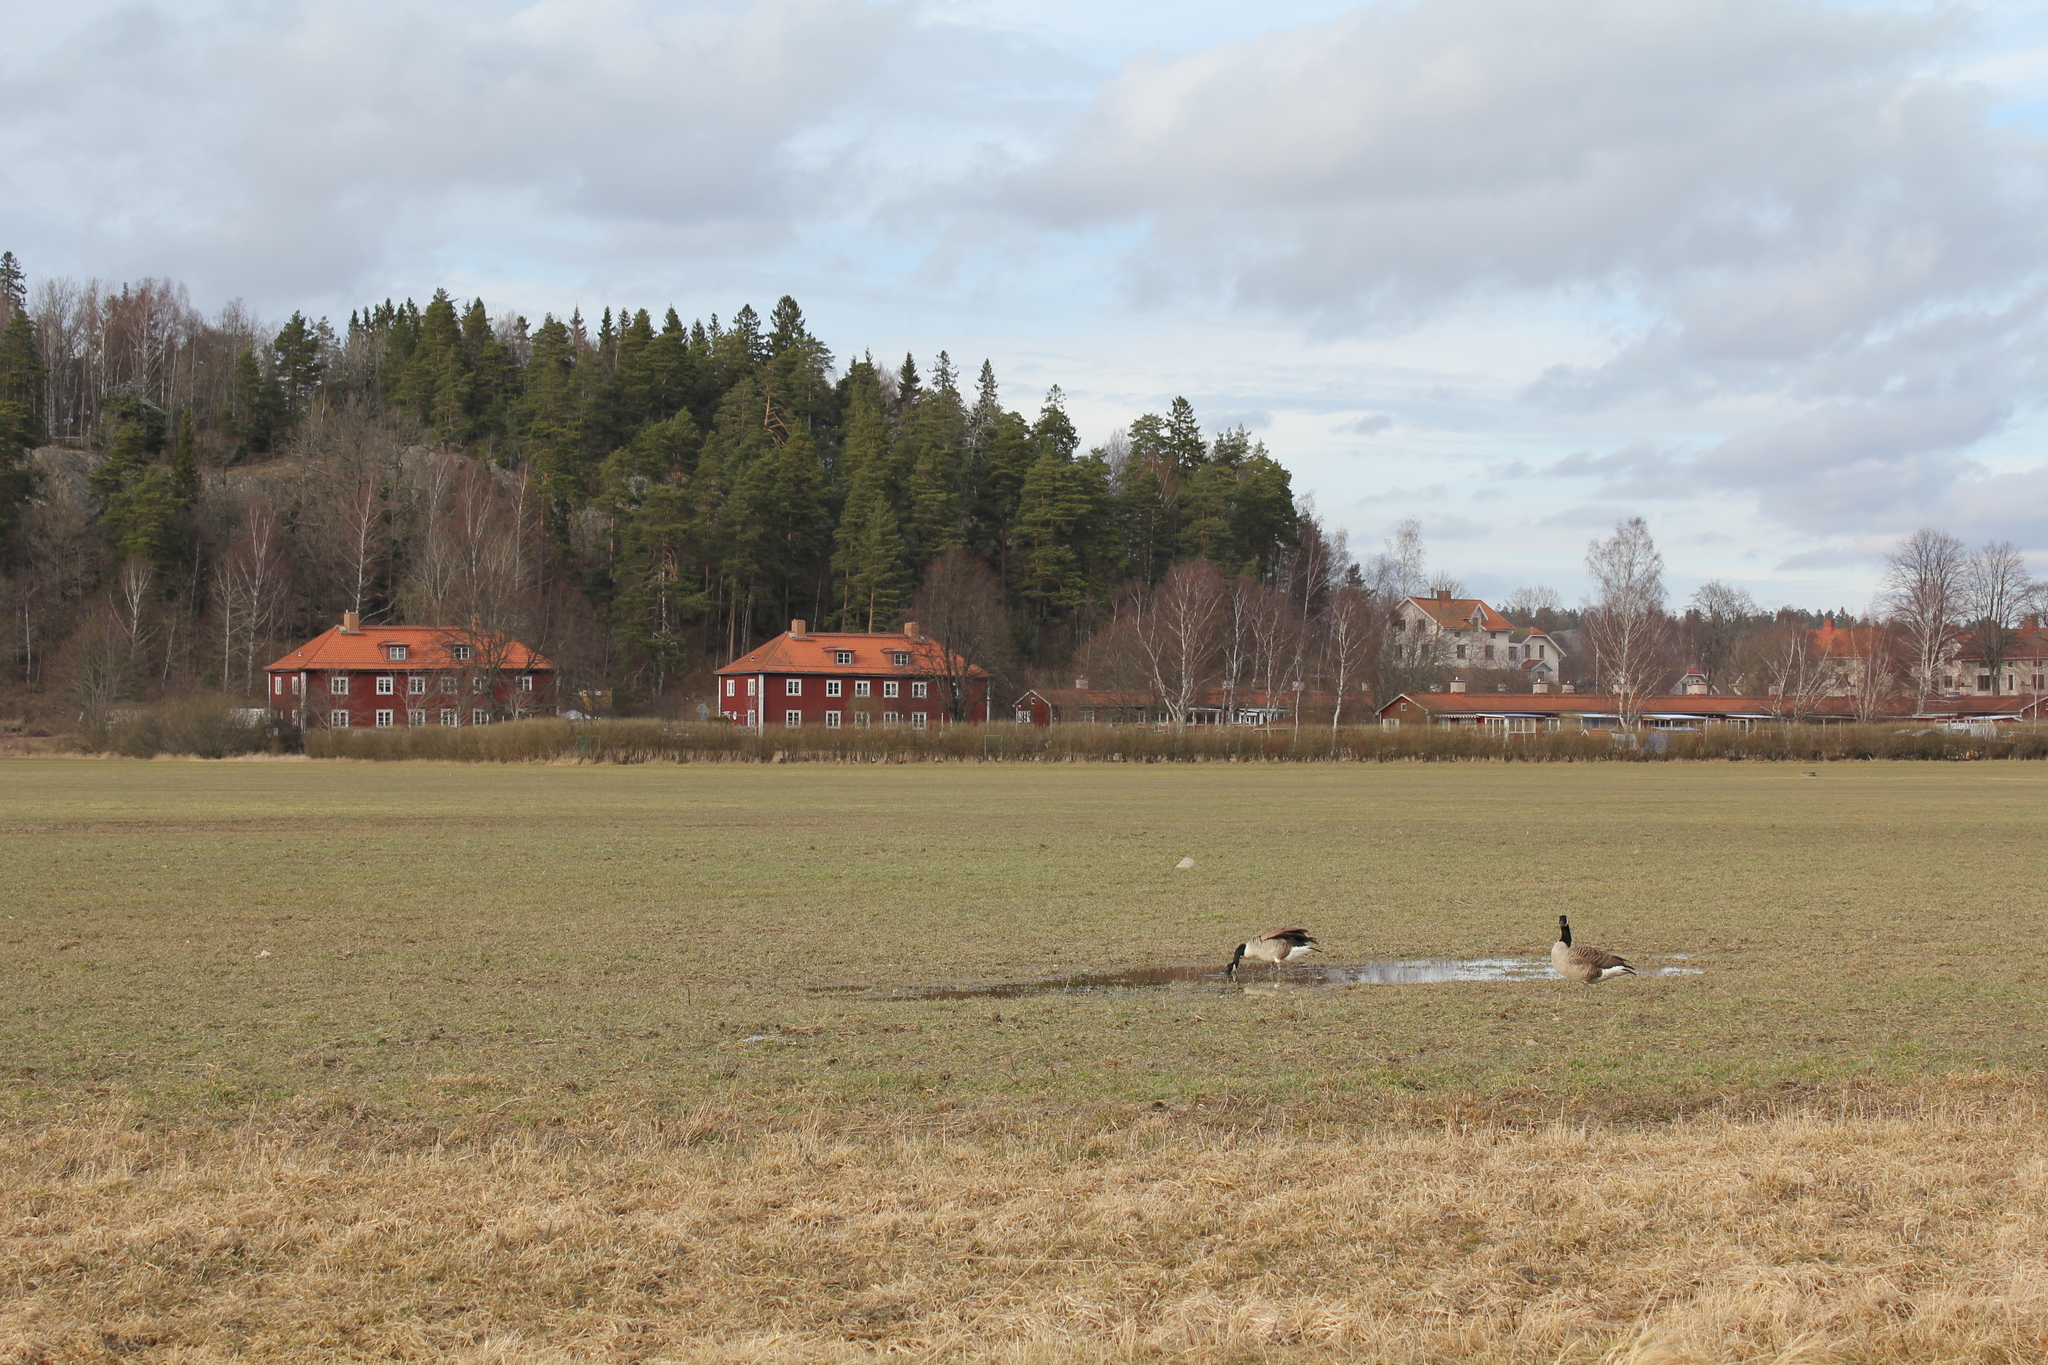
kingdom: Animalia
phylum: Chordata
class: Aves
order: Anseriformes
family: Anatidae
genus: Branta
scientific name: Branta canadensis
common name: Canada goose
